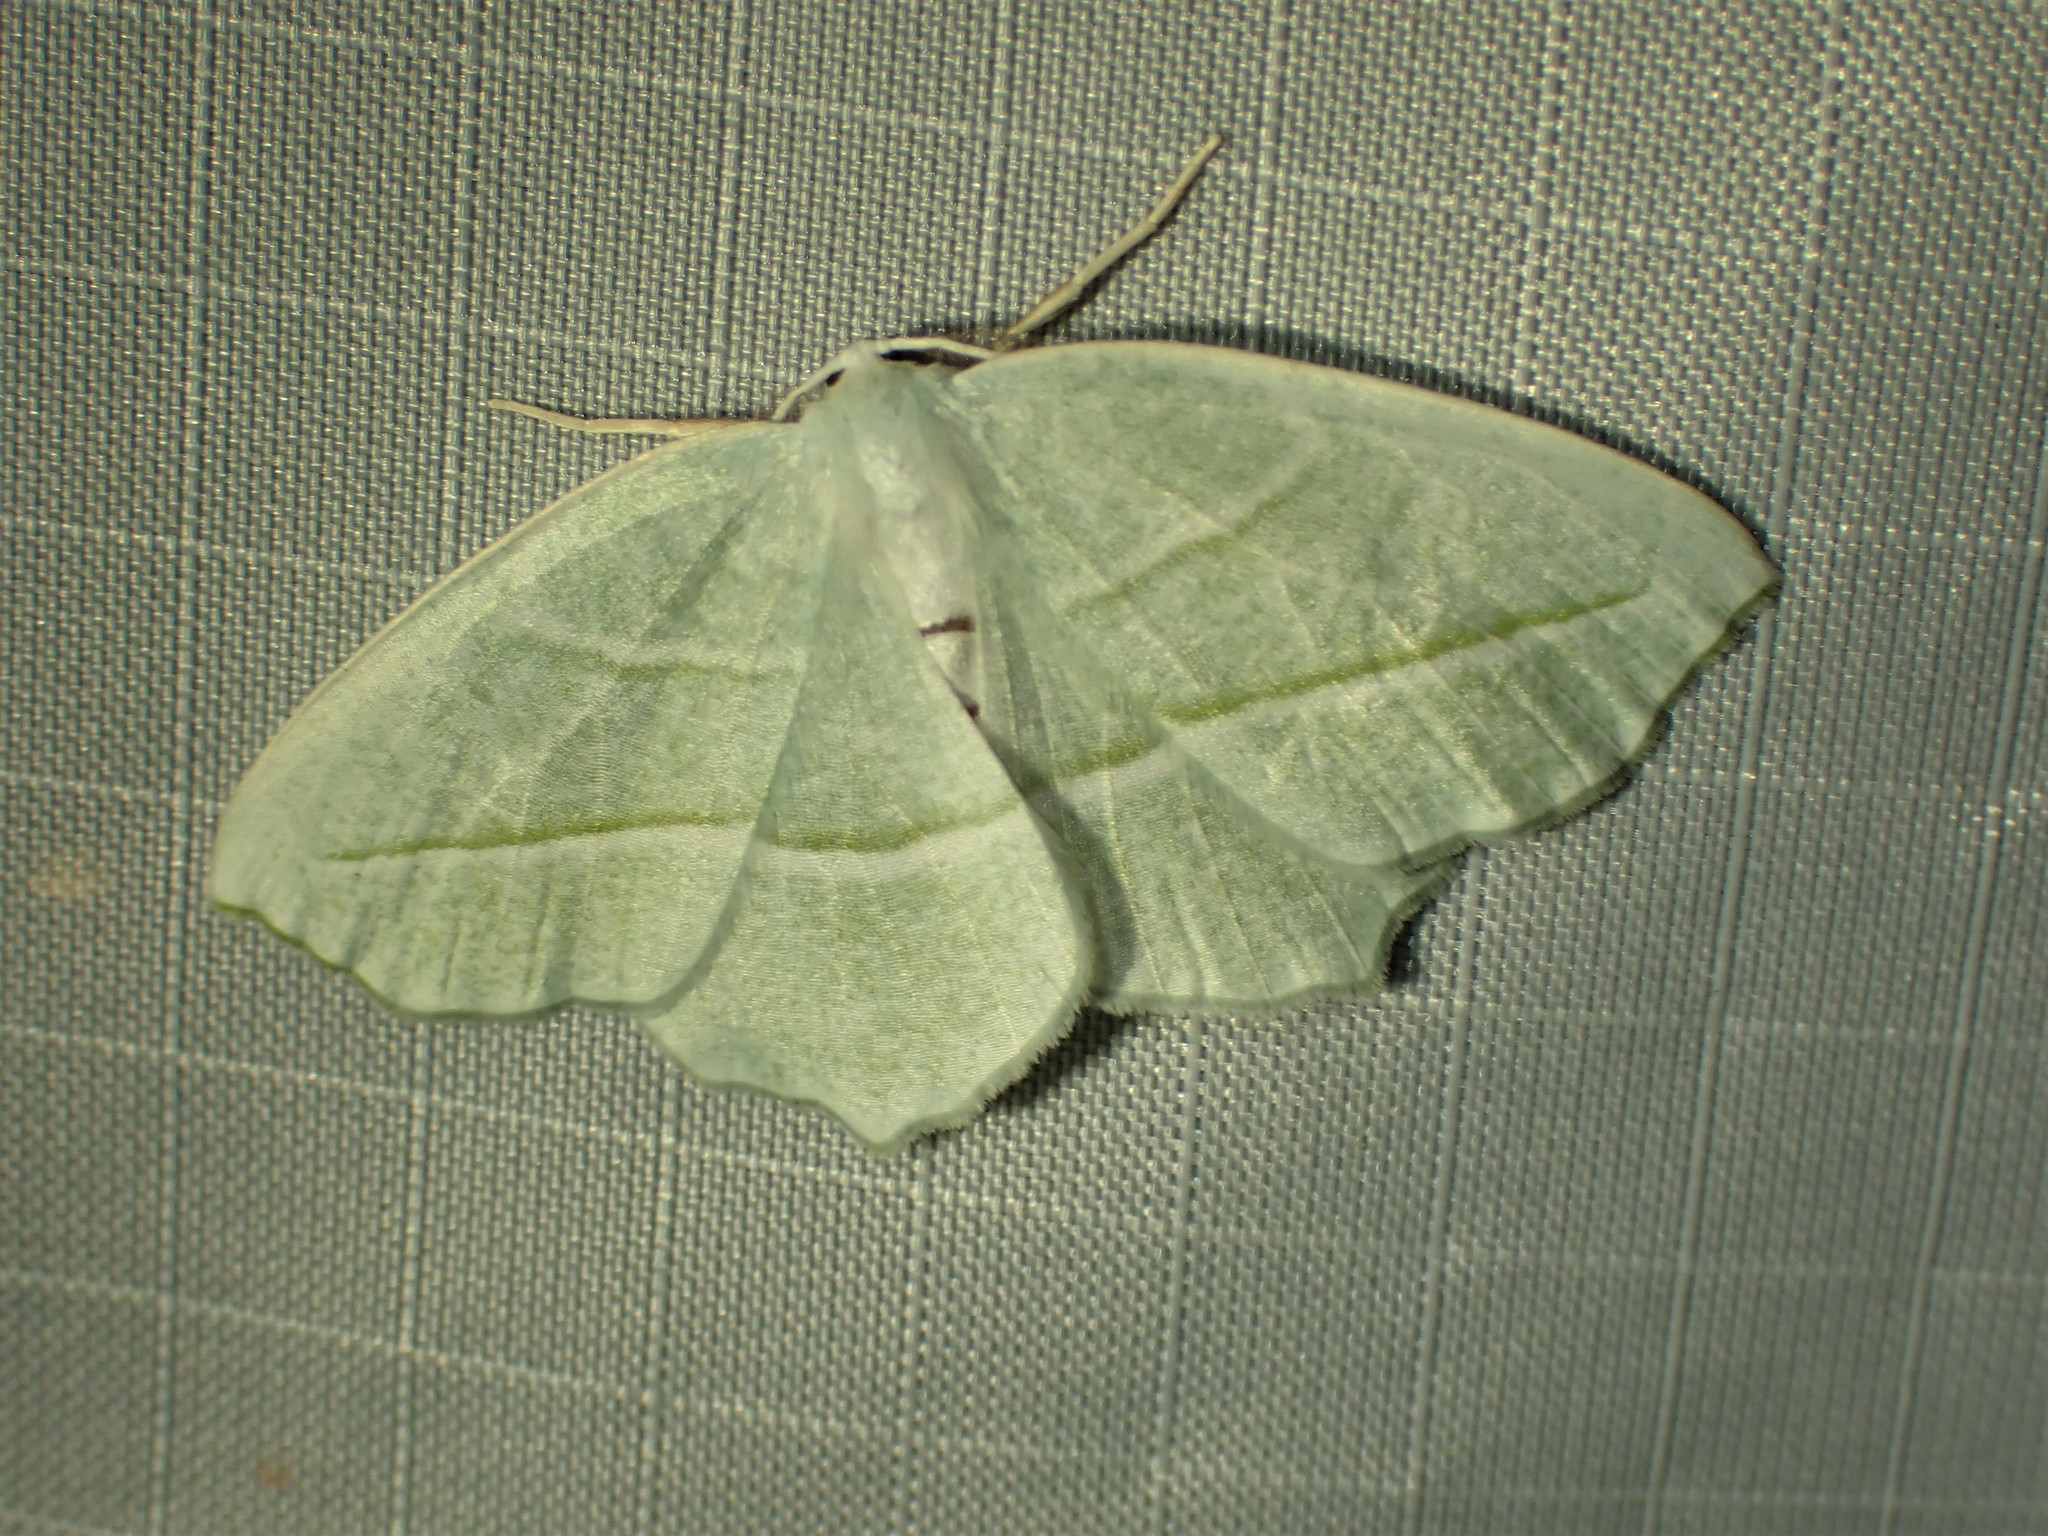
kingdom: Animalia
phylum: Arthropoda
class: Insecta
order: Lepidoptera
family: Geometridae
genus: Campaea
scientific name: Campaea perlata
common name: Fringed looper
